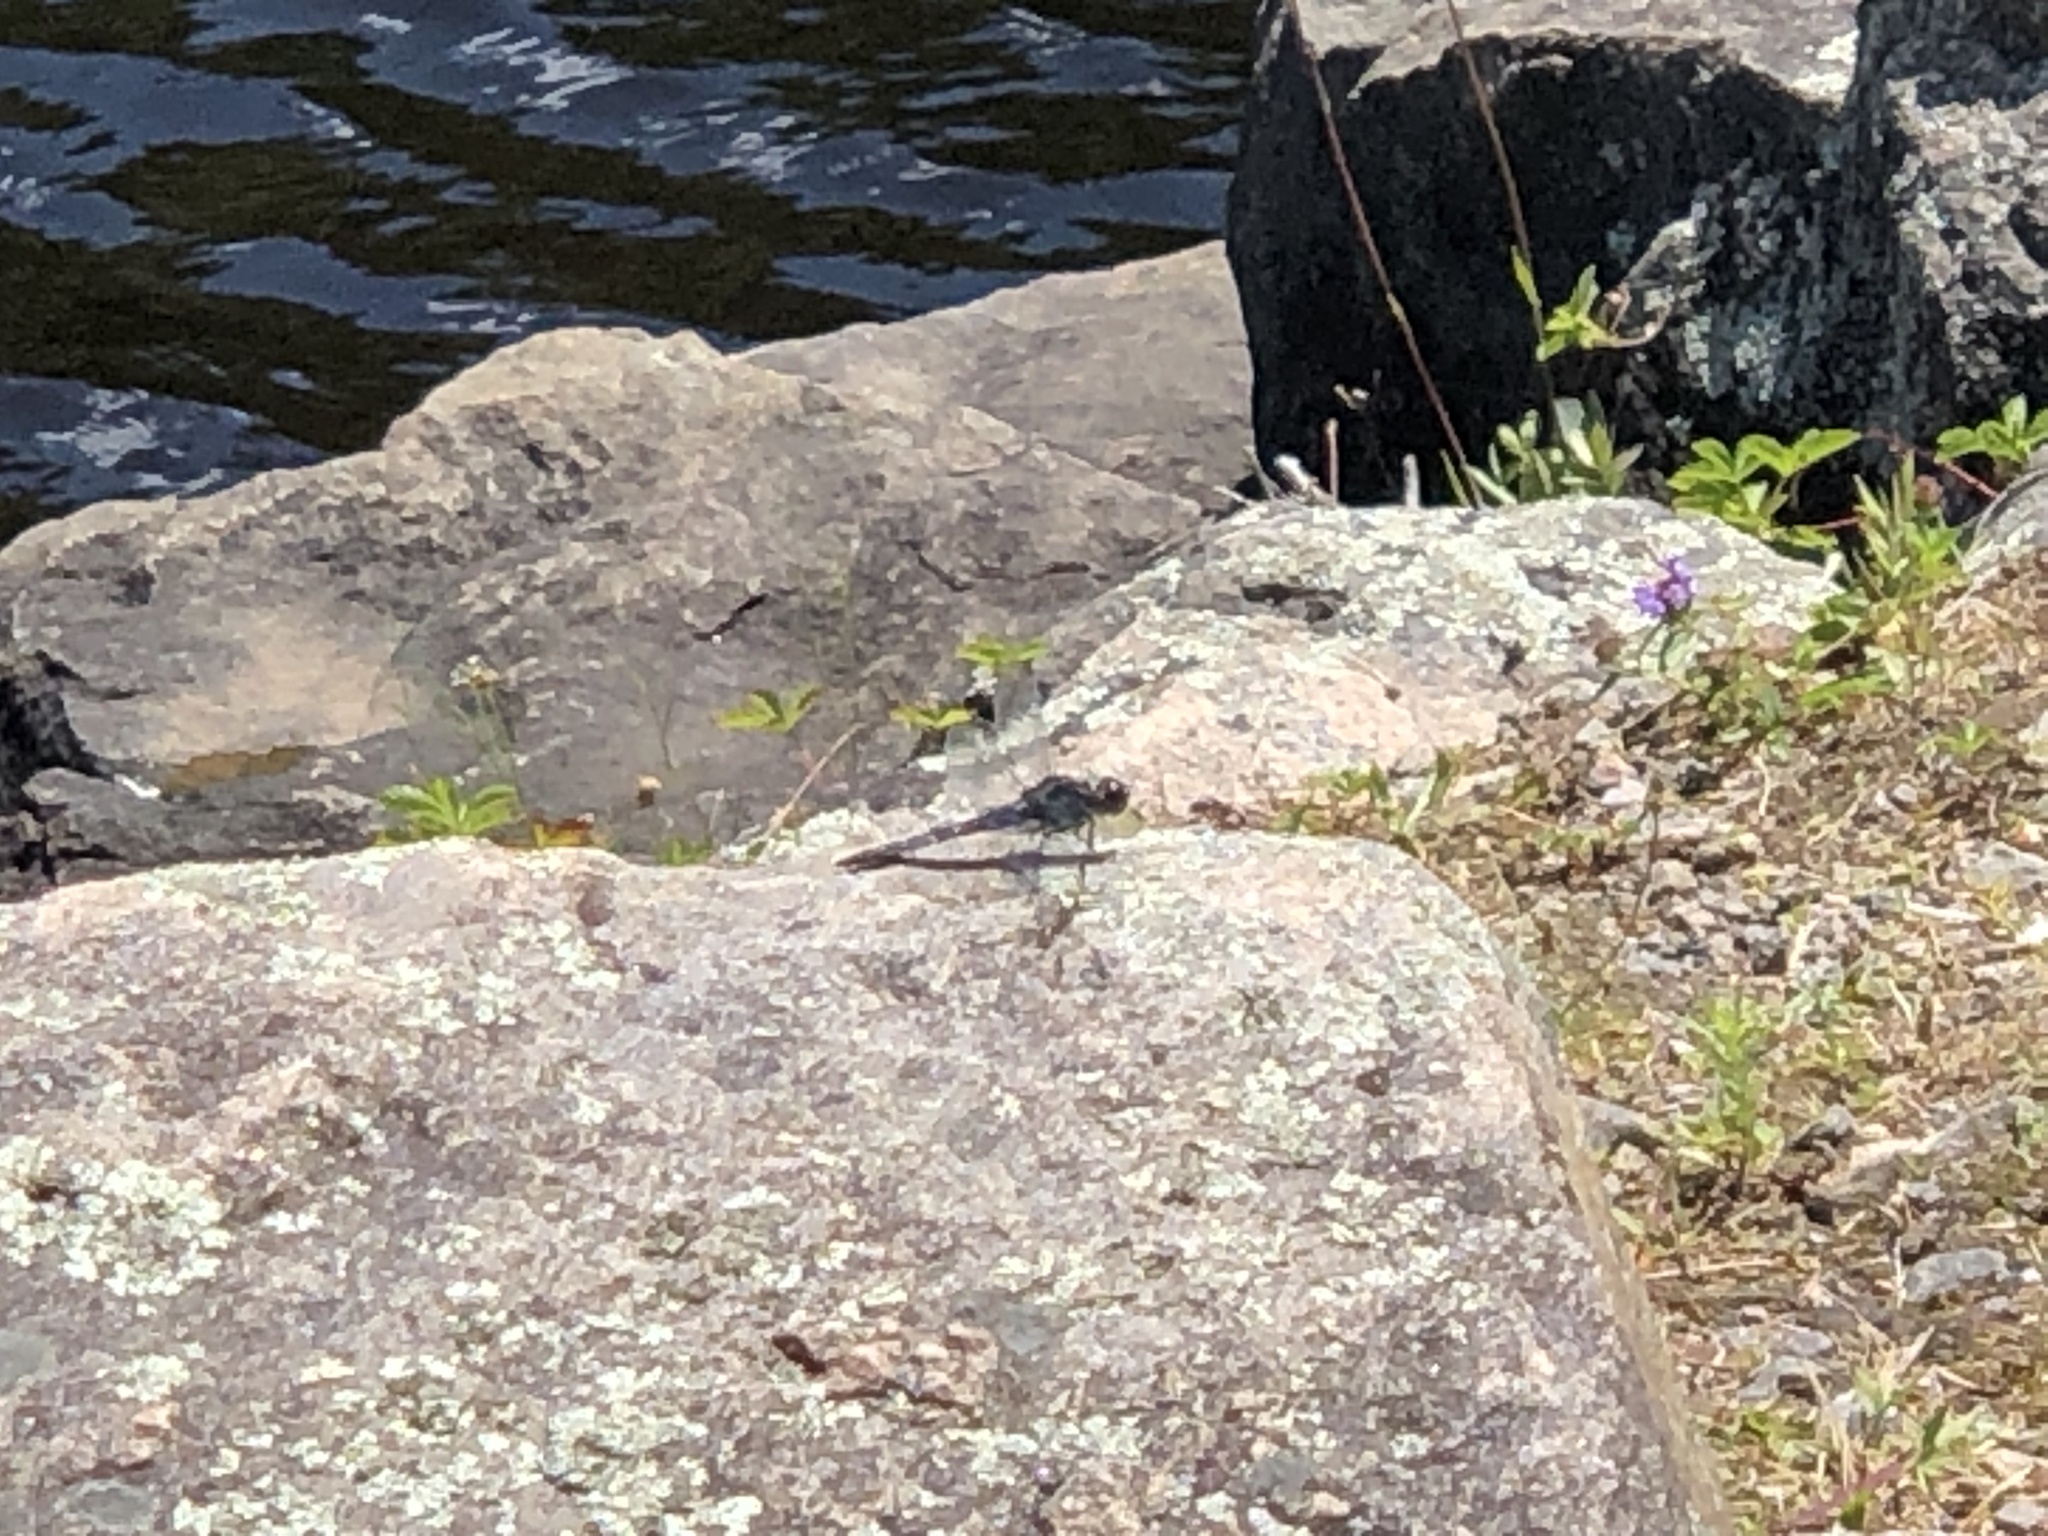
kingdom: Animalia
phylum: Arthropoda
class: Insecta
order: Odonata
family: Libellulidae
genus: Libellula
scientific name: Libellula incesta
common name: Slaty skimmer
